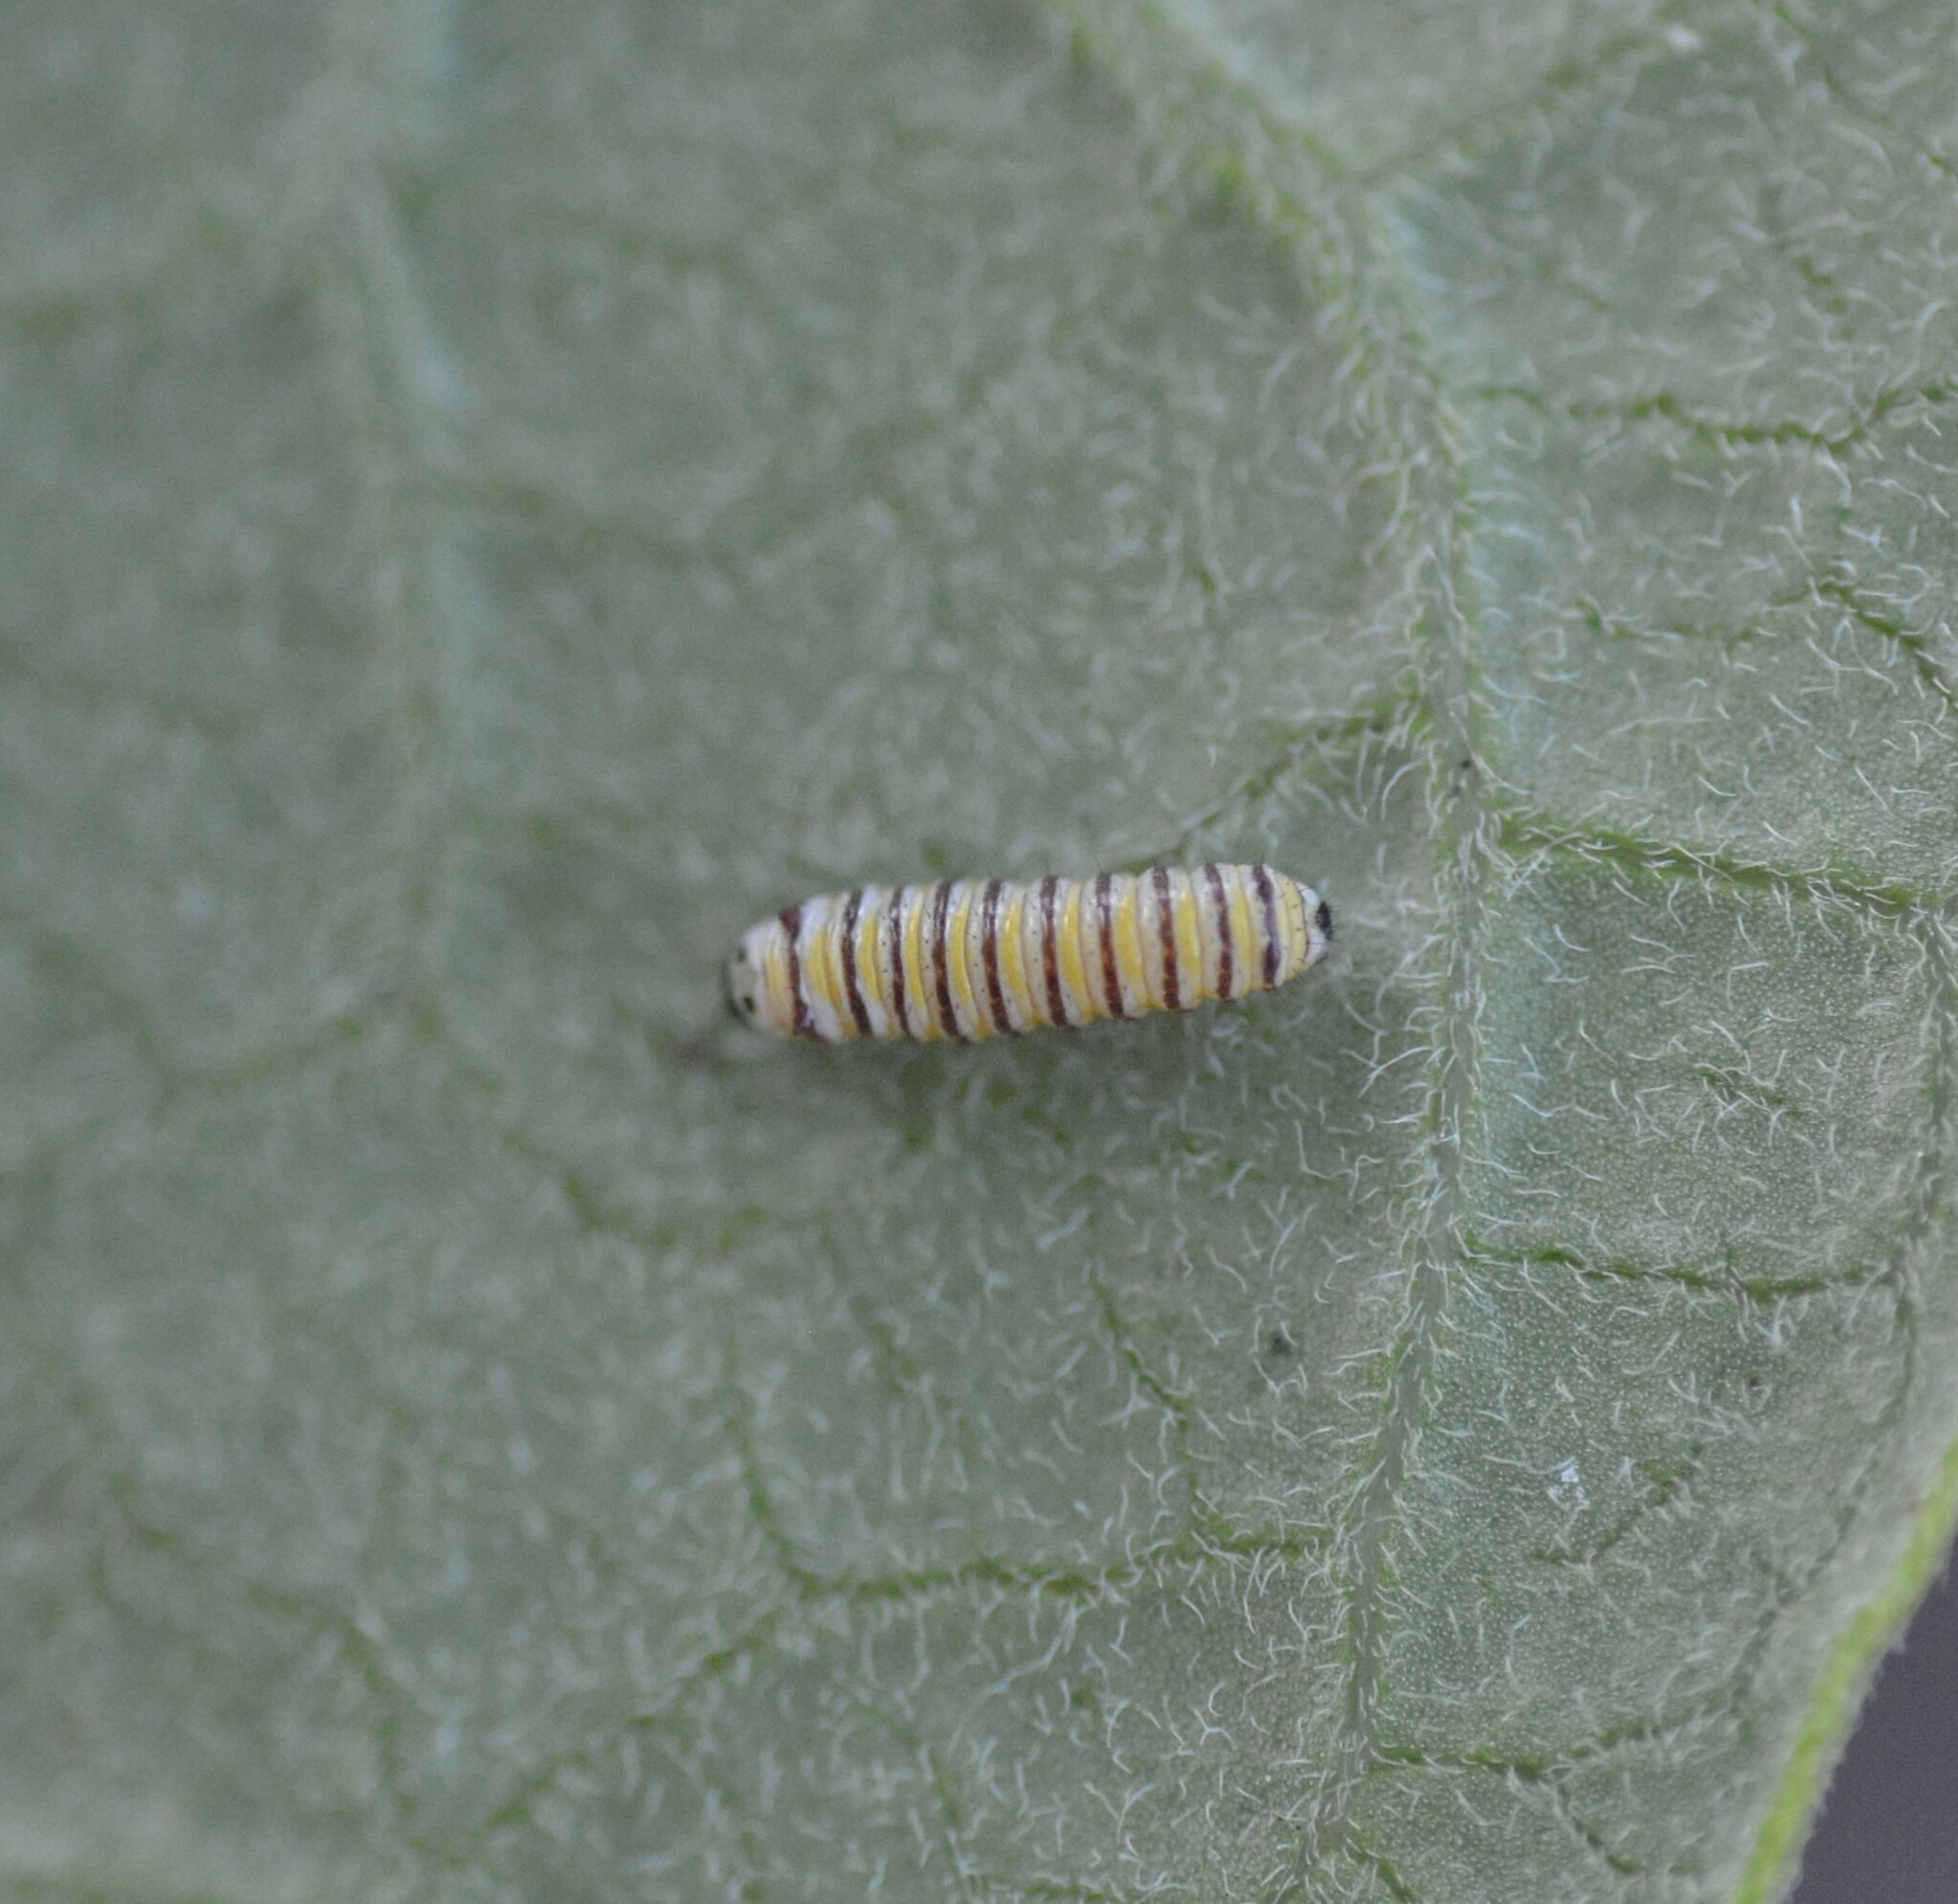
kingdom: Animalia
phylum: Arthropoda
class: Insecta
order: Lepidoptera
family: Nymphalidae
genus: Danaus
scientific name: Danaus plexippus
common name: Monarch
